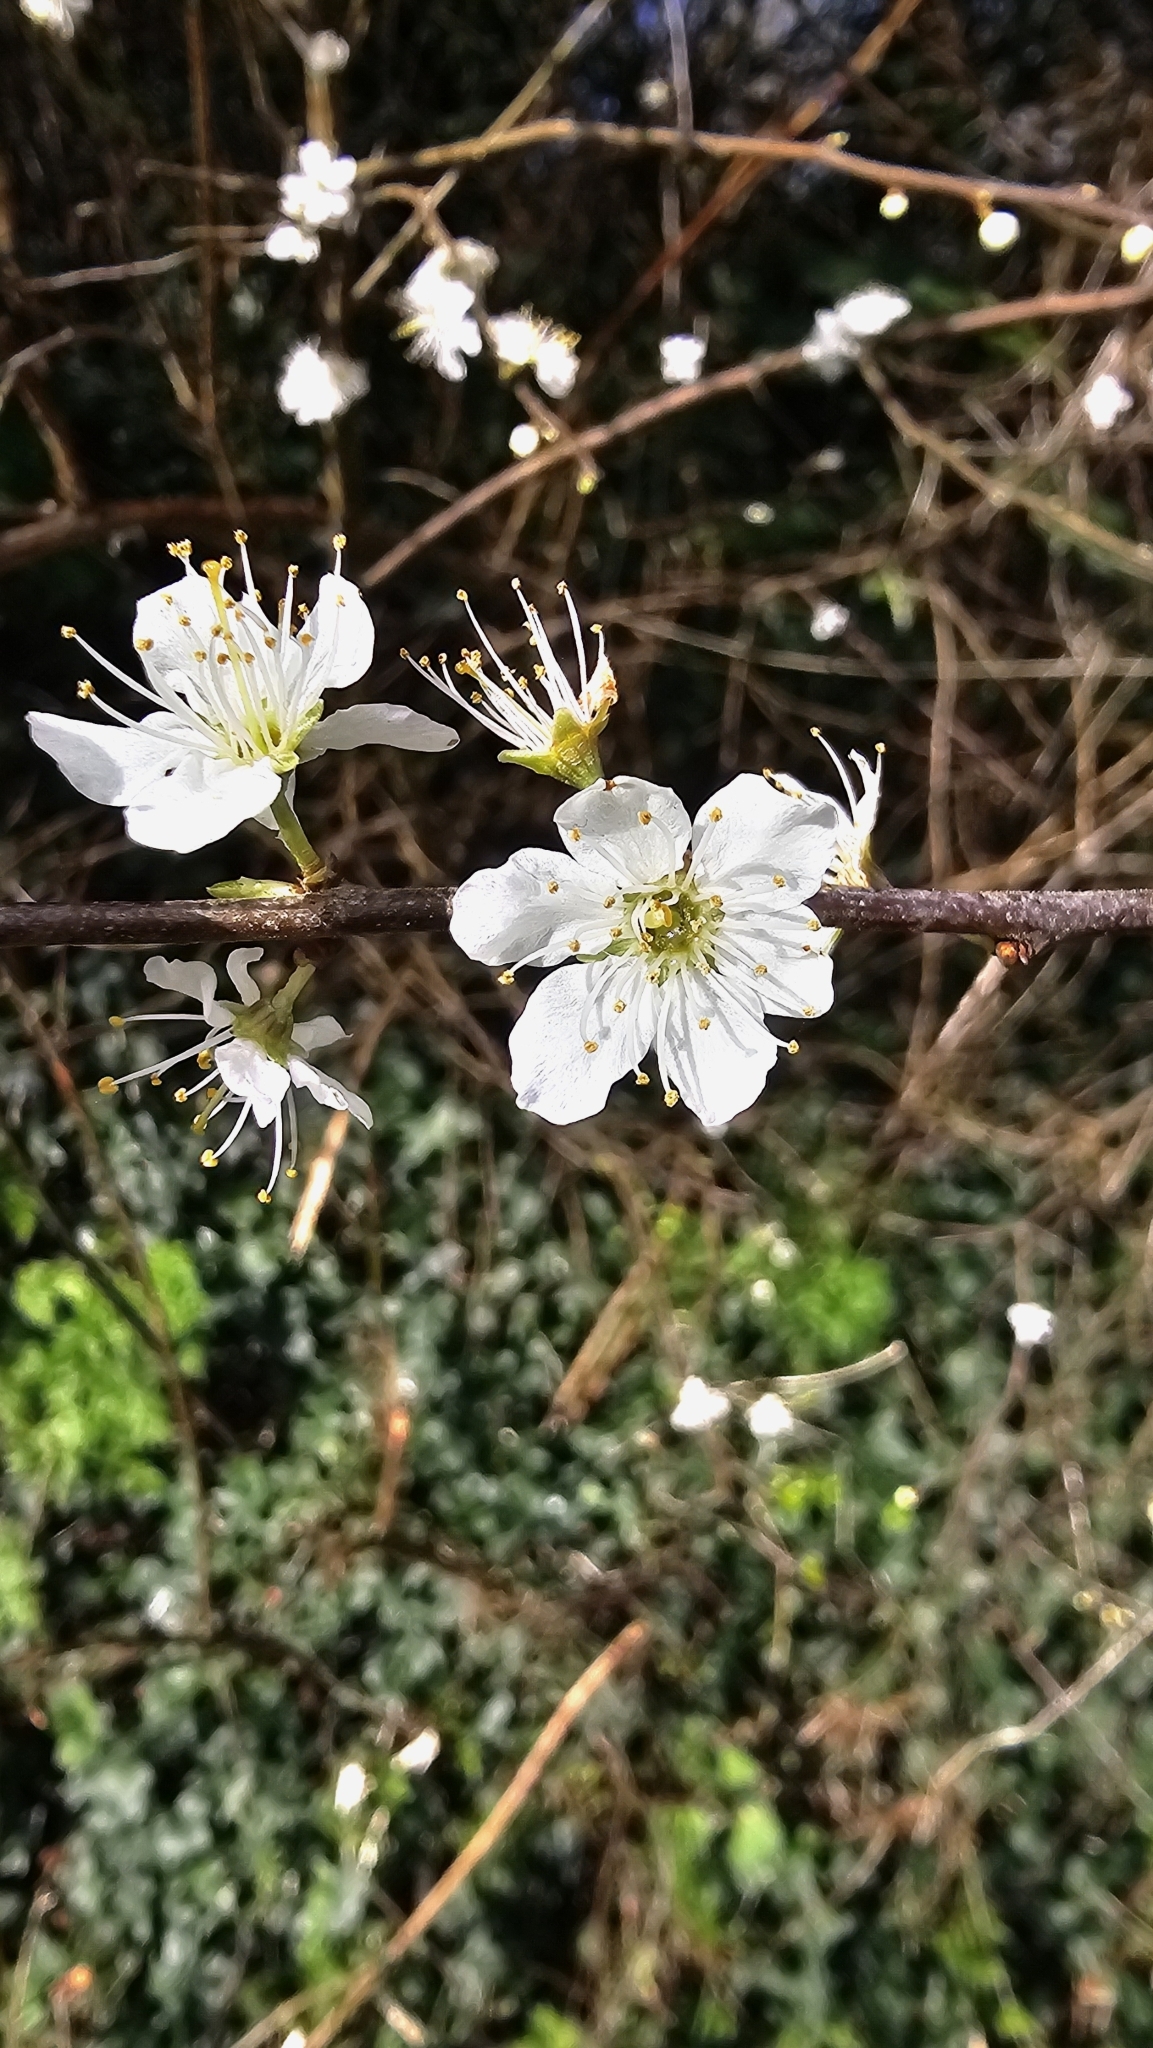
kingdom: Plantae
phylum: Tracheophyta
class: Magnoliopsida
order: Rosales
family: Rosaceae
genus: Prunus
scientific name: Prunus spinosa
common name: Blackthorn
